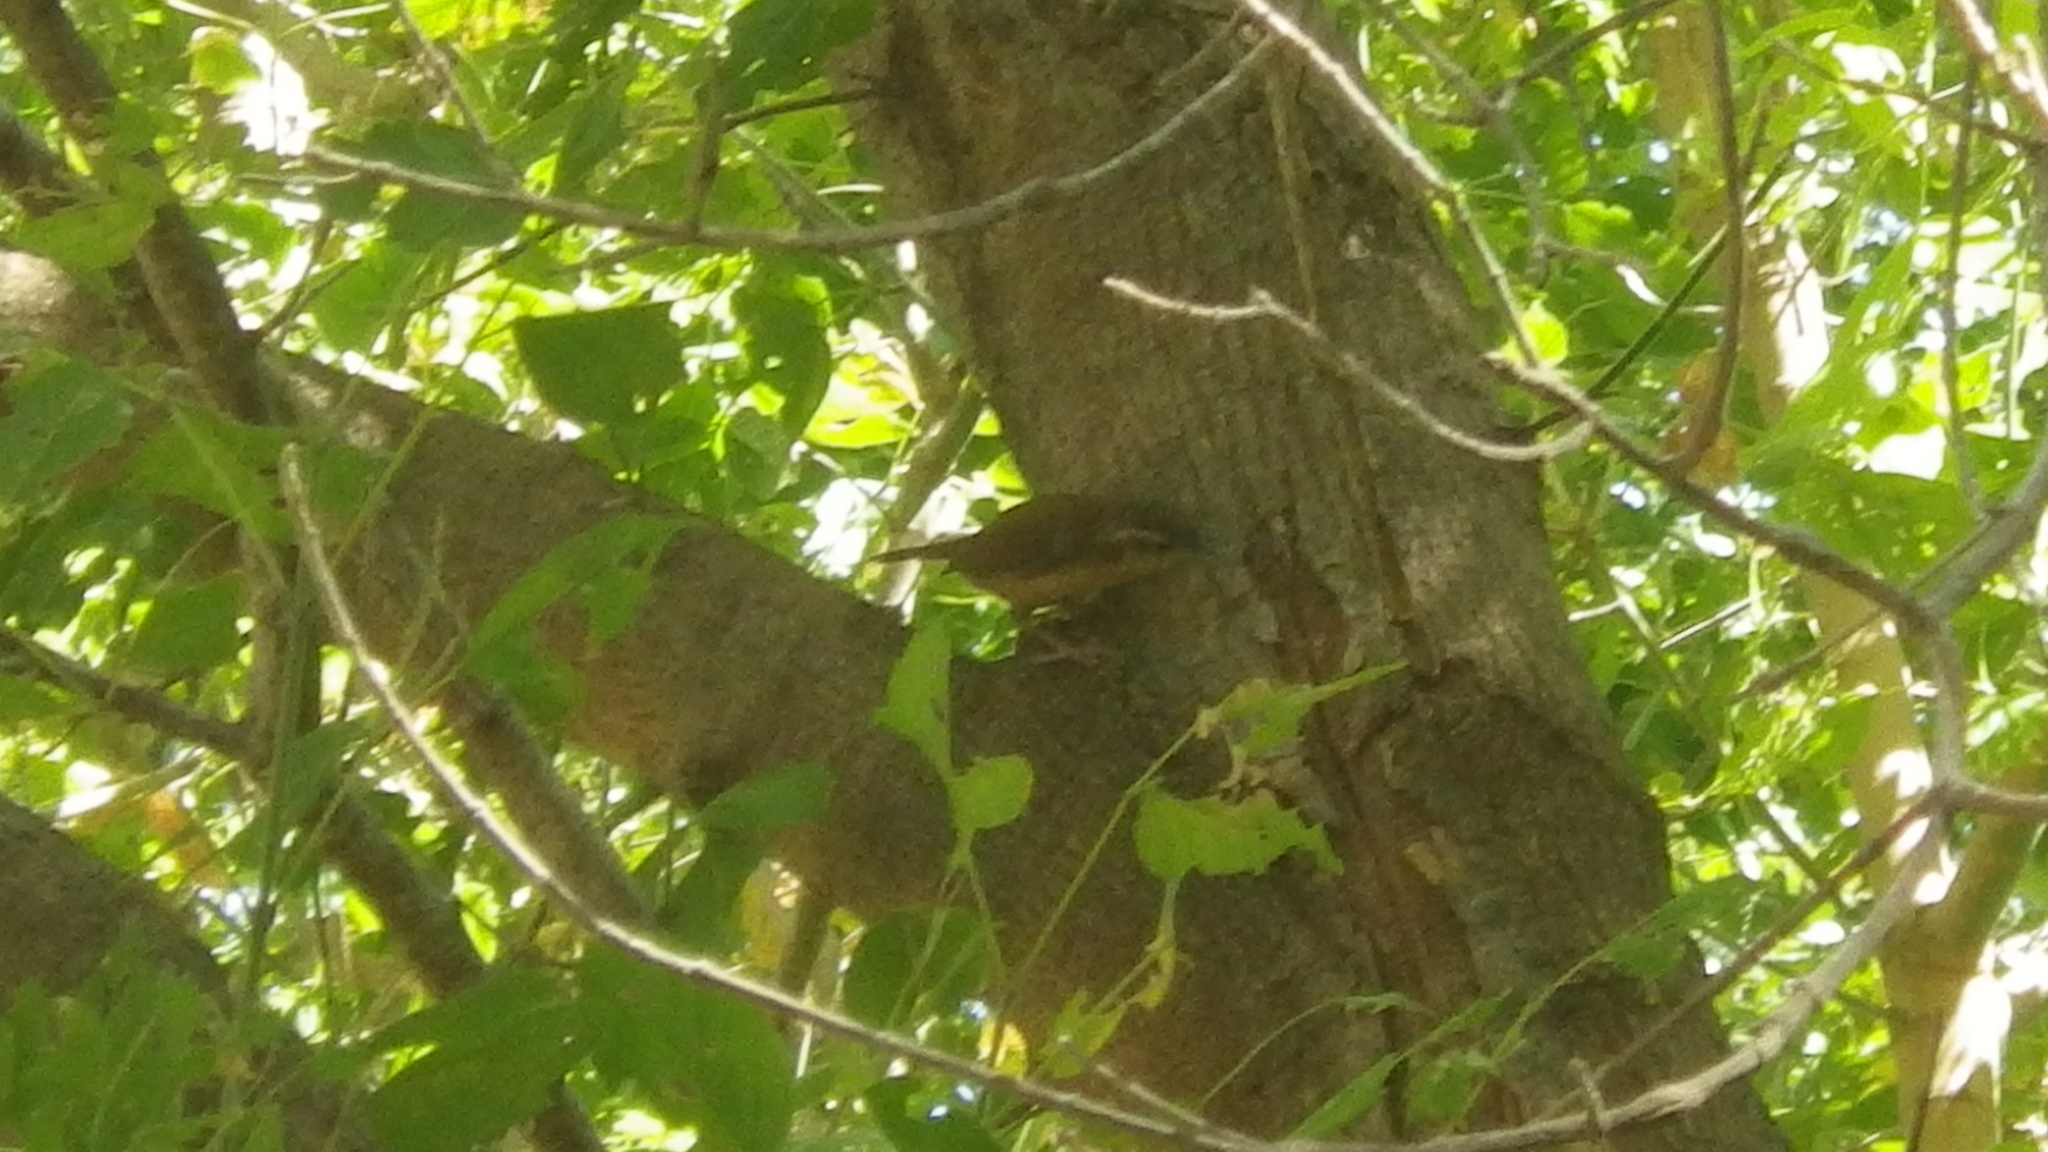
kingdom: Animalia
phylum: Chordata
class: Aves
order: Passeriformes
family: Troglodytidae
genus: Thryothorus
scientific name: Thryothorus ludovicianus
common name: Carolina wren
